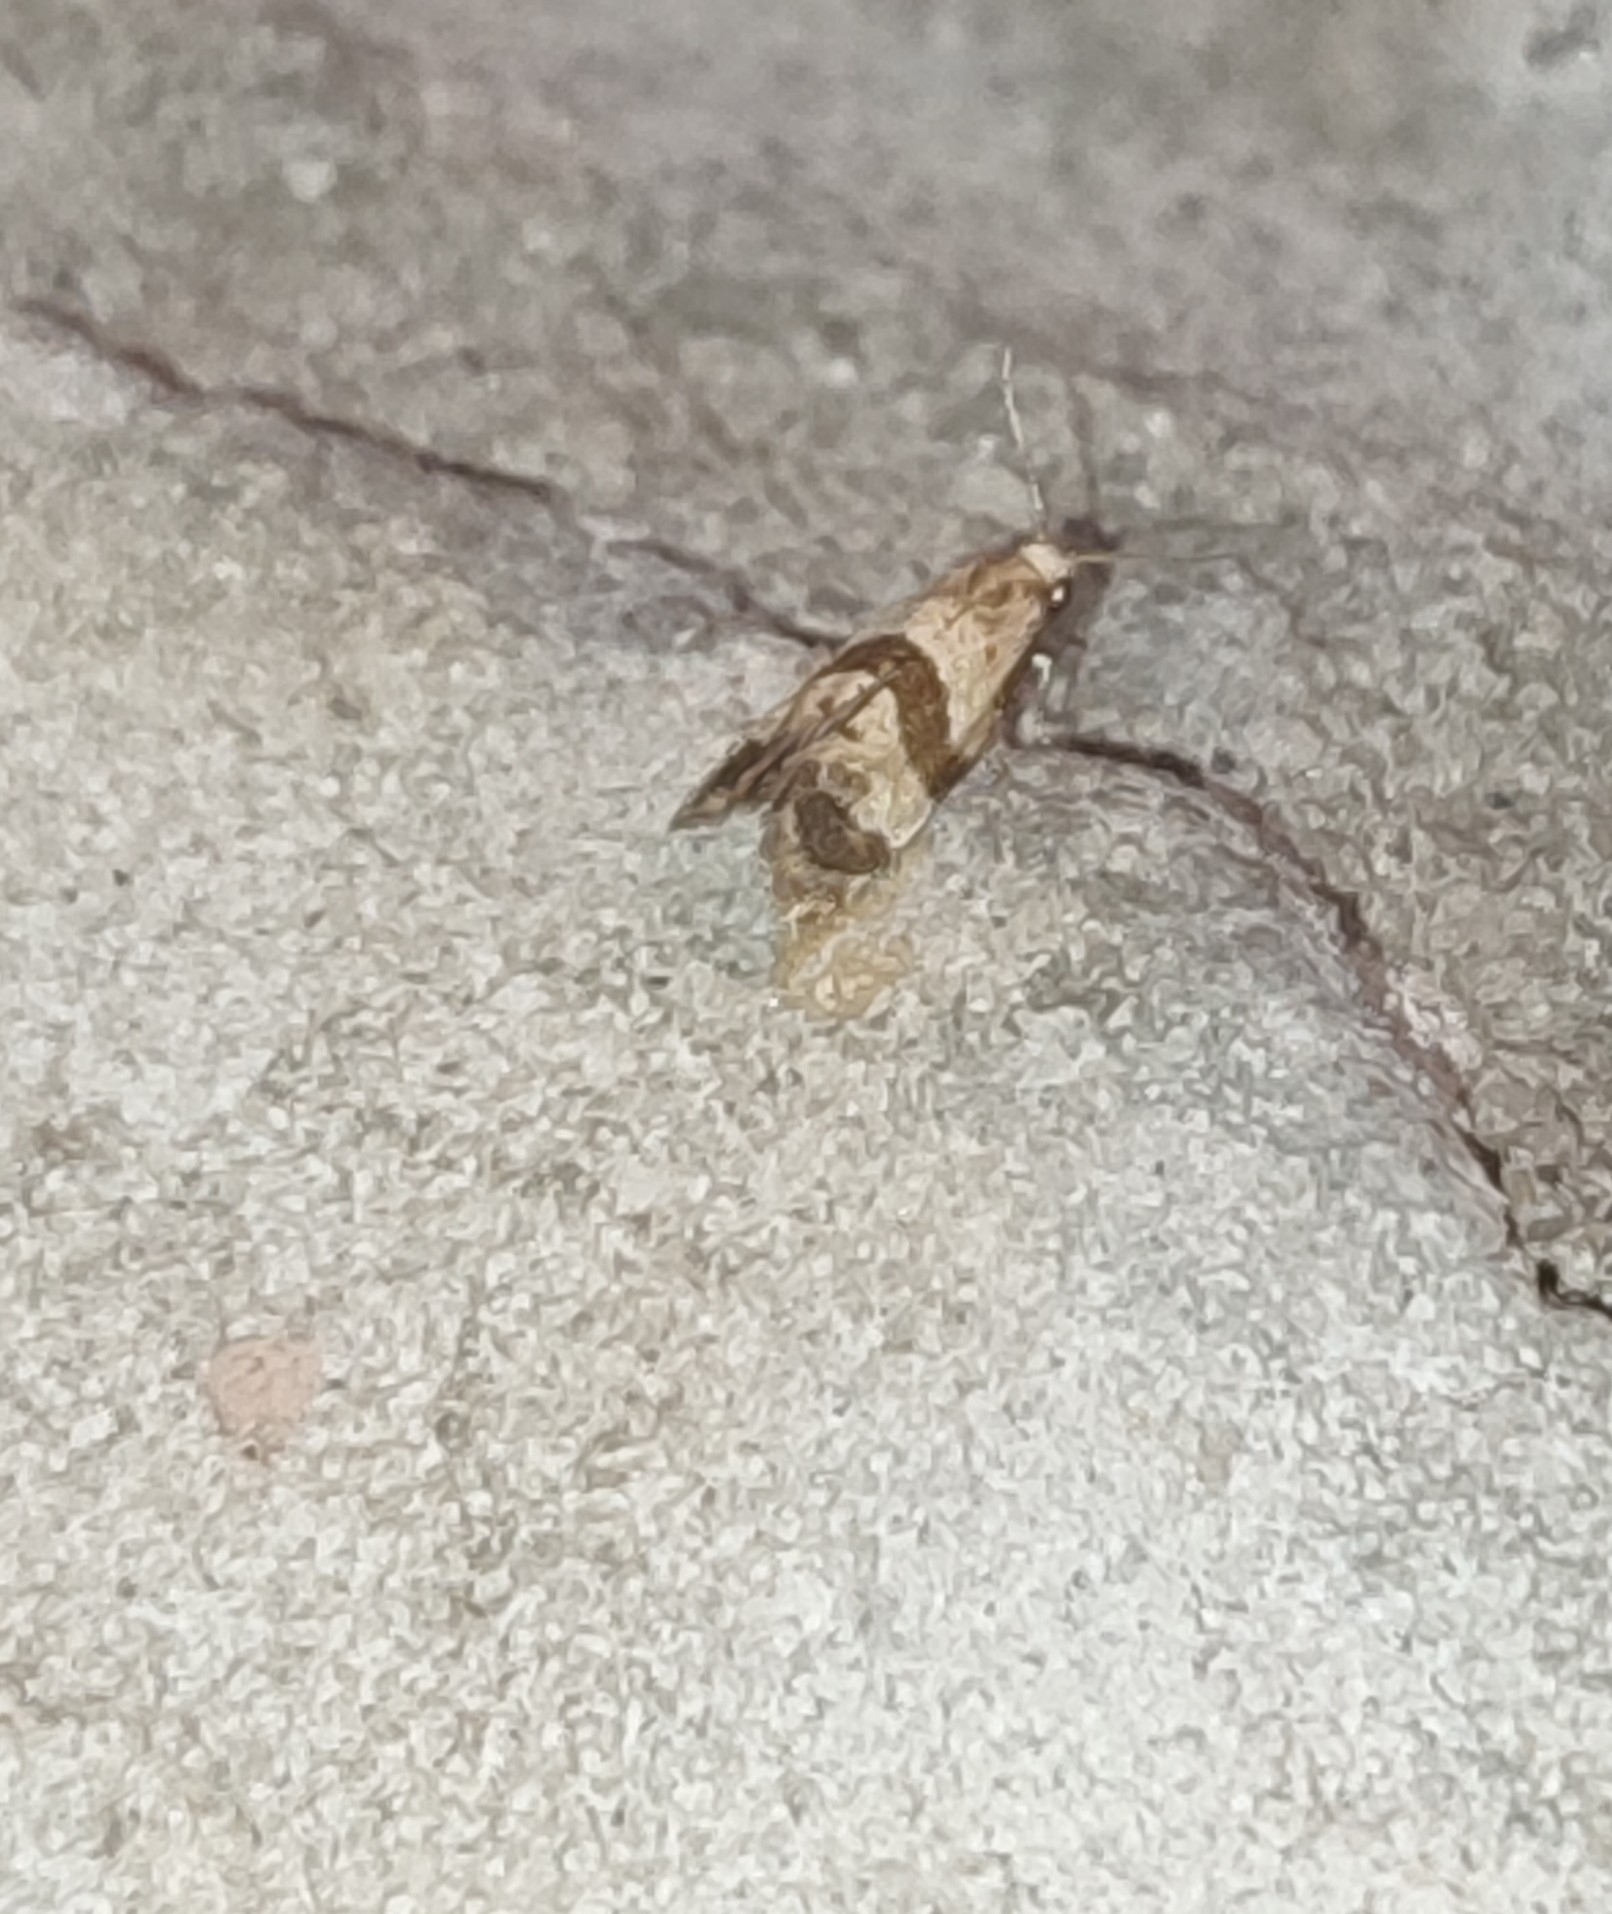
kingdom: Animalia
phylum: Arthropoda
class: Insecta
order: Lepidoptera
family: Tortricidae
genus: Phalonidia
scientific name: Phalonidia contractana
